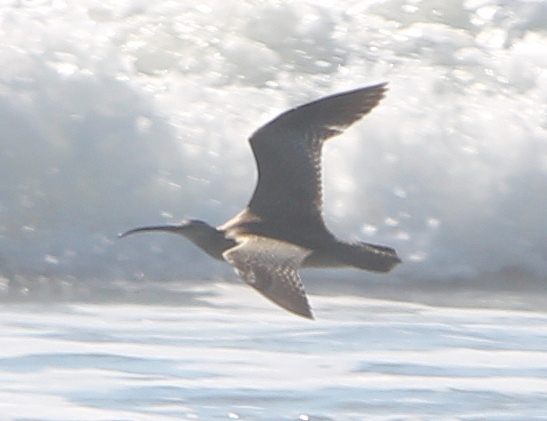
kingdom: Animalia
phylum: Chordata
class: Aves
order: Charadriiformes
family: Scolopacidae
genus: Numenius
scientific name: Numenius phaeopus
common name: Whimbrel
